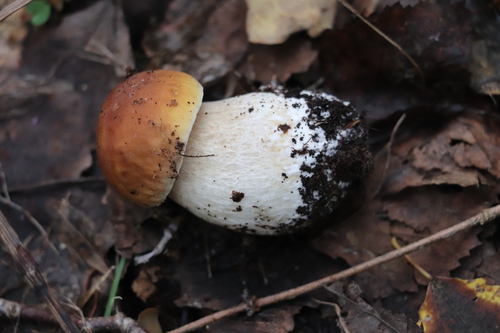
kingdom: Fungi
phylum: Basidiomycota
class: Agaricomycetes
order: Boletales
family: Boletaceae
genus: Boletus
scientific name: Boletus edulis
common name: Cep
